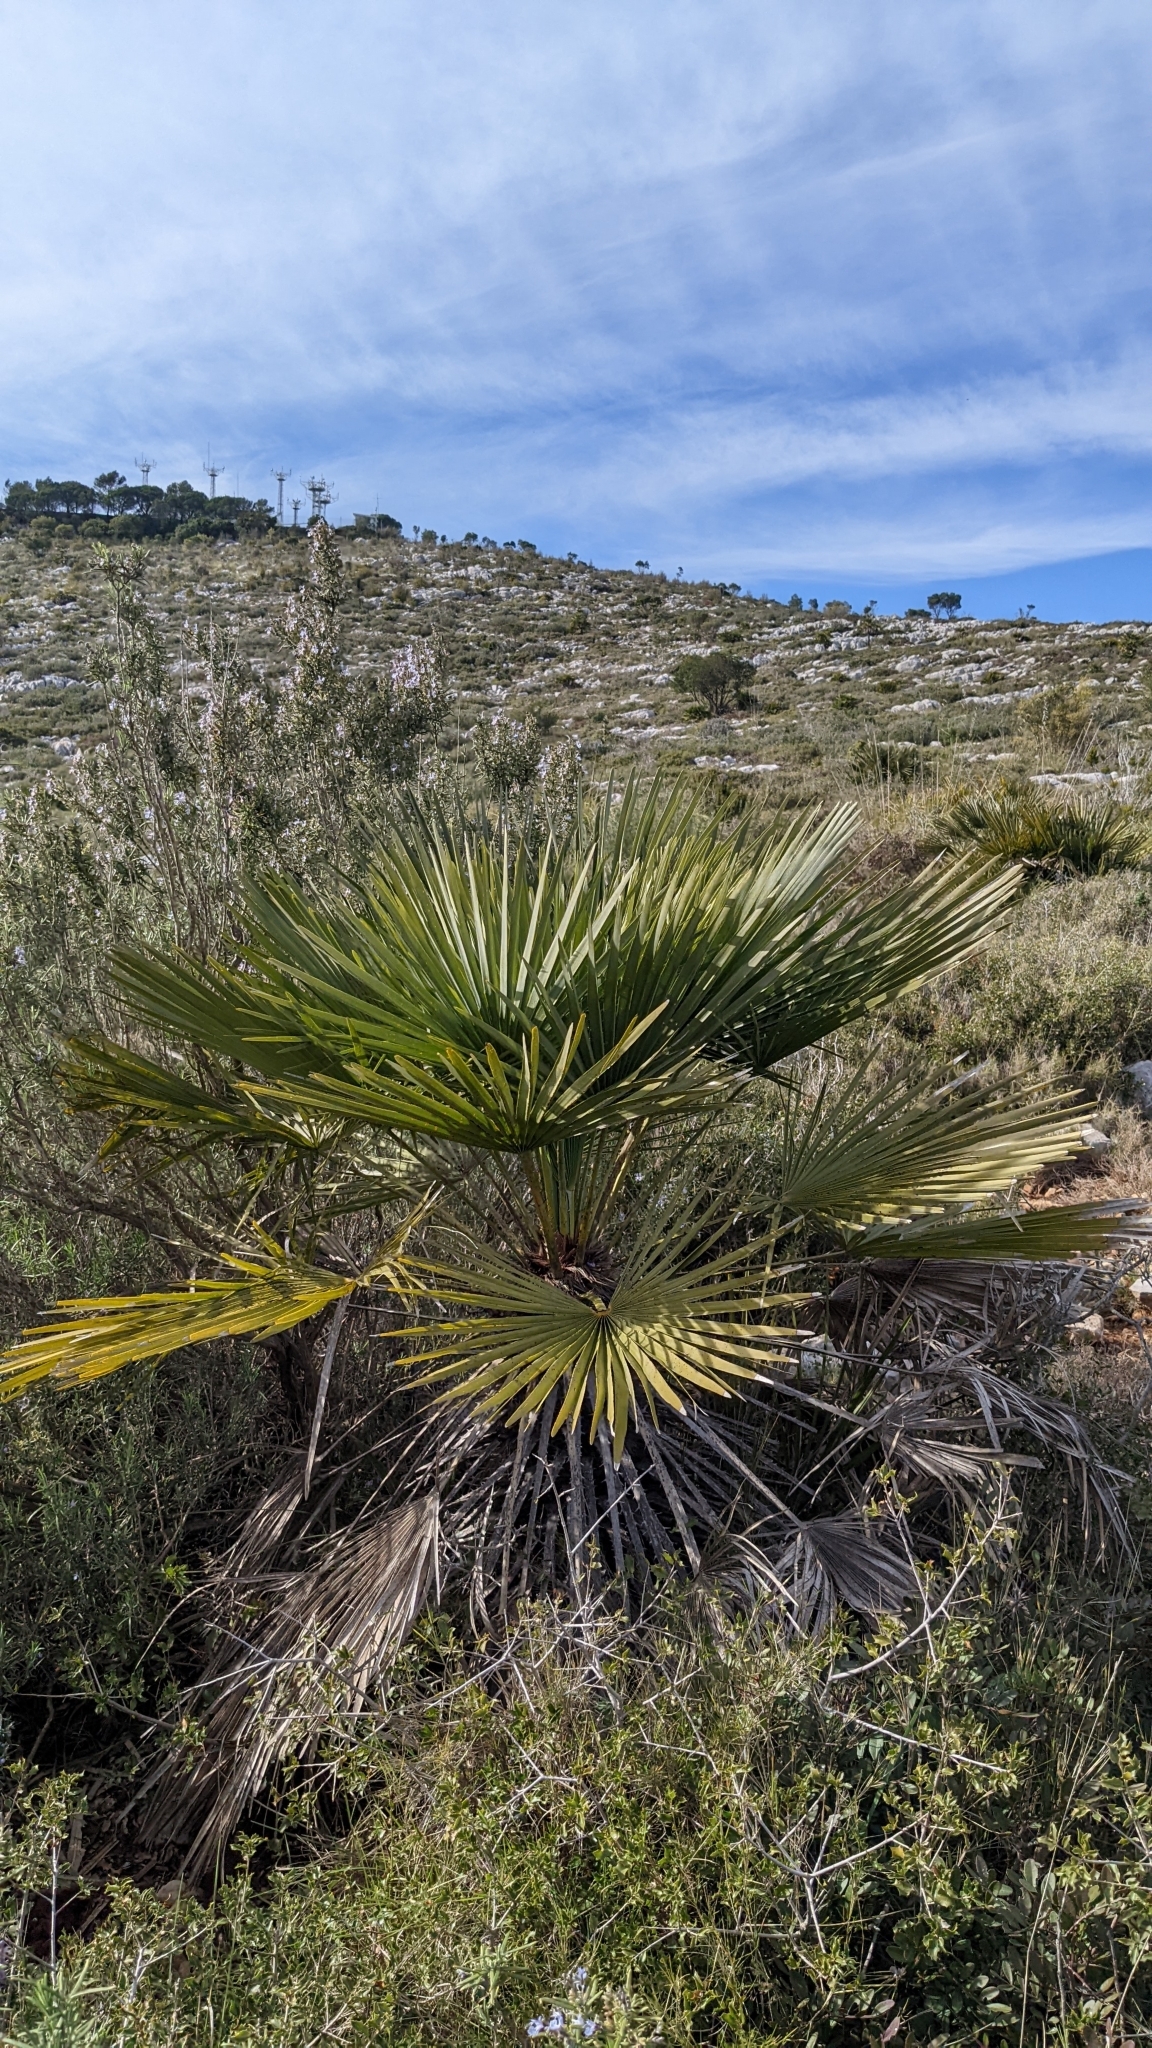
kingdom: Plantae
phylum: Tracheophyta
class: Liliopsida
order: Arecales
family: Arecaceae
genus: Chamaerops
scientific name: Chamaerops humilis
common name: Dwarf fan palm
